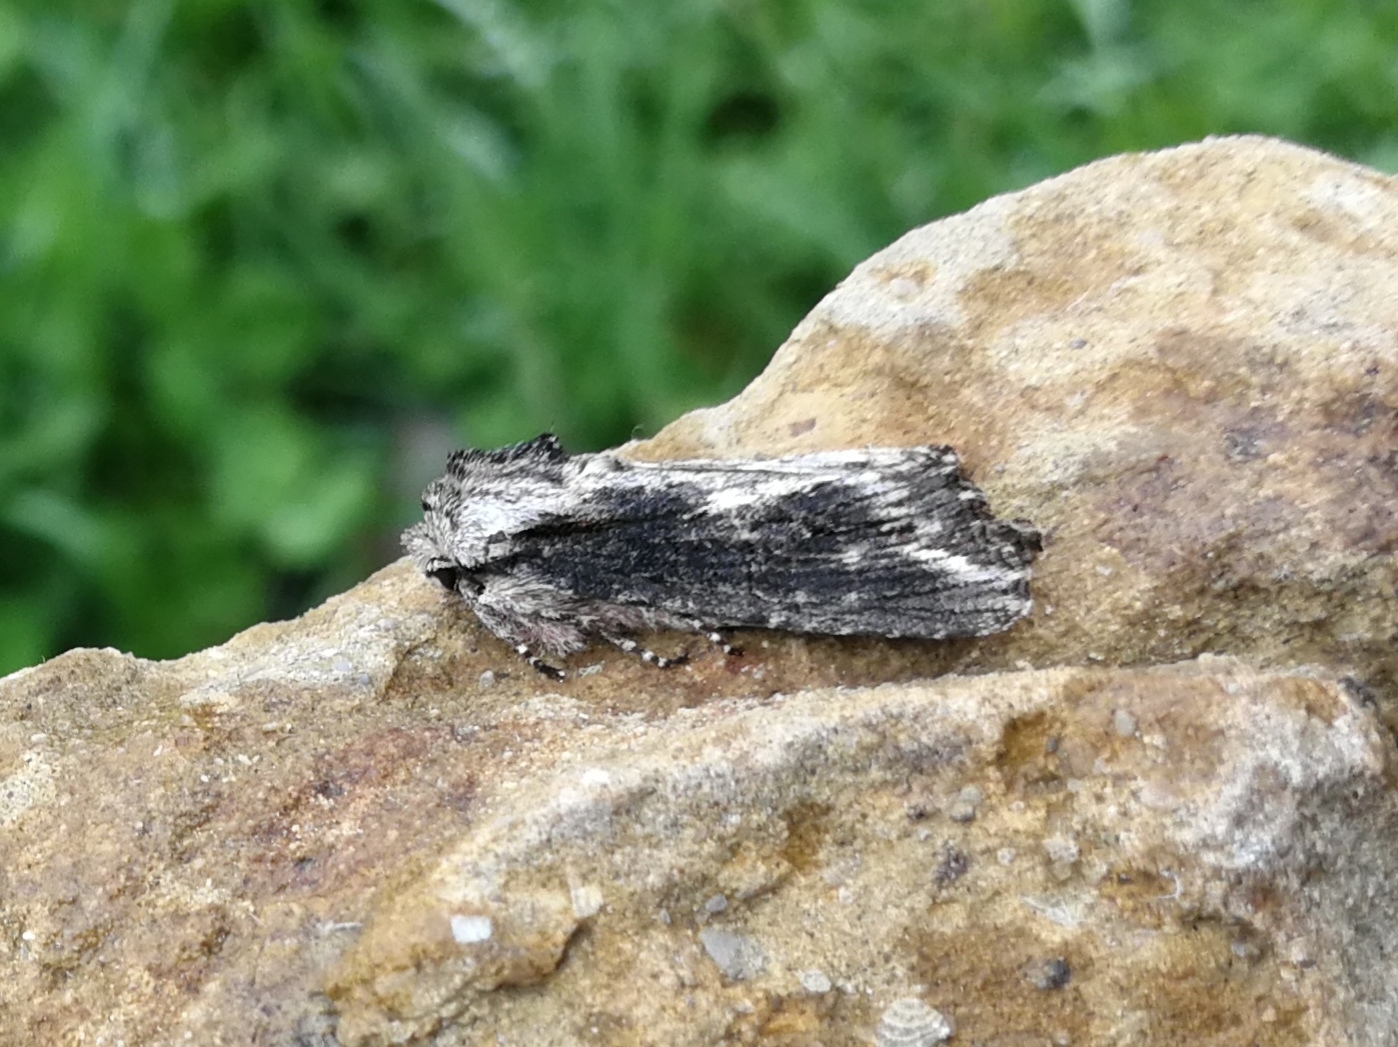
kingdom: Animalia
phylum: Arthropoda
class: Insecta
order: Lepidoptera
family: Noctuidae
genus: Egira
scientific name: Egira conspicillaris
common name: Silver cloud
